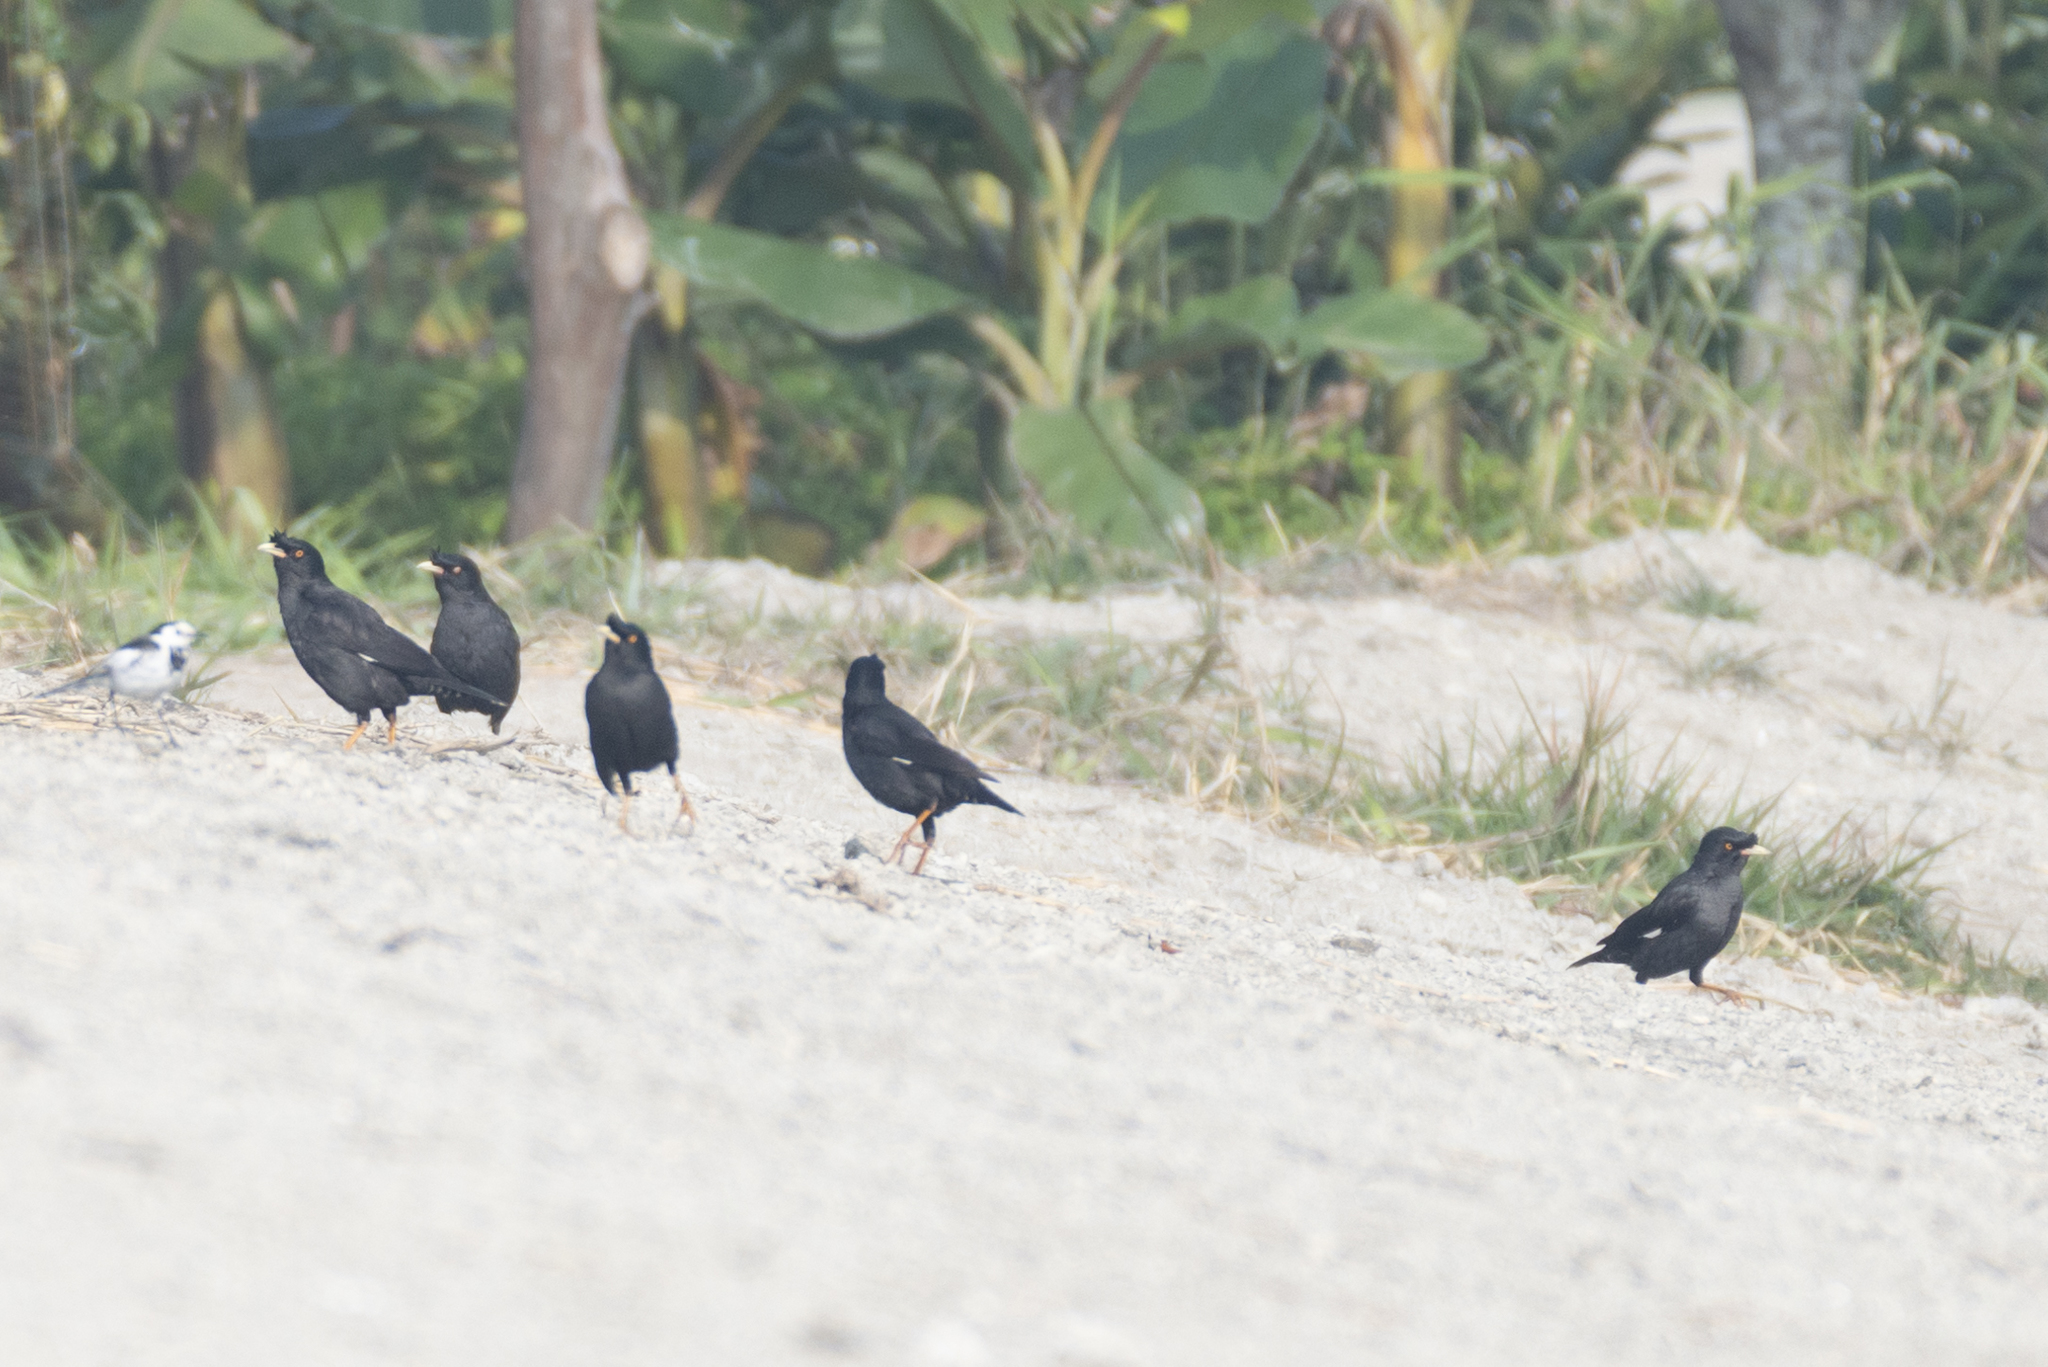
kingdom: Animalia
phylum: Chordata
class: Aves
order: Passeriformes
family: Sturnidae
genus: Acridotheres
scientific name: Acridotheres cristatellus
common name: Crested myna
